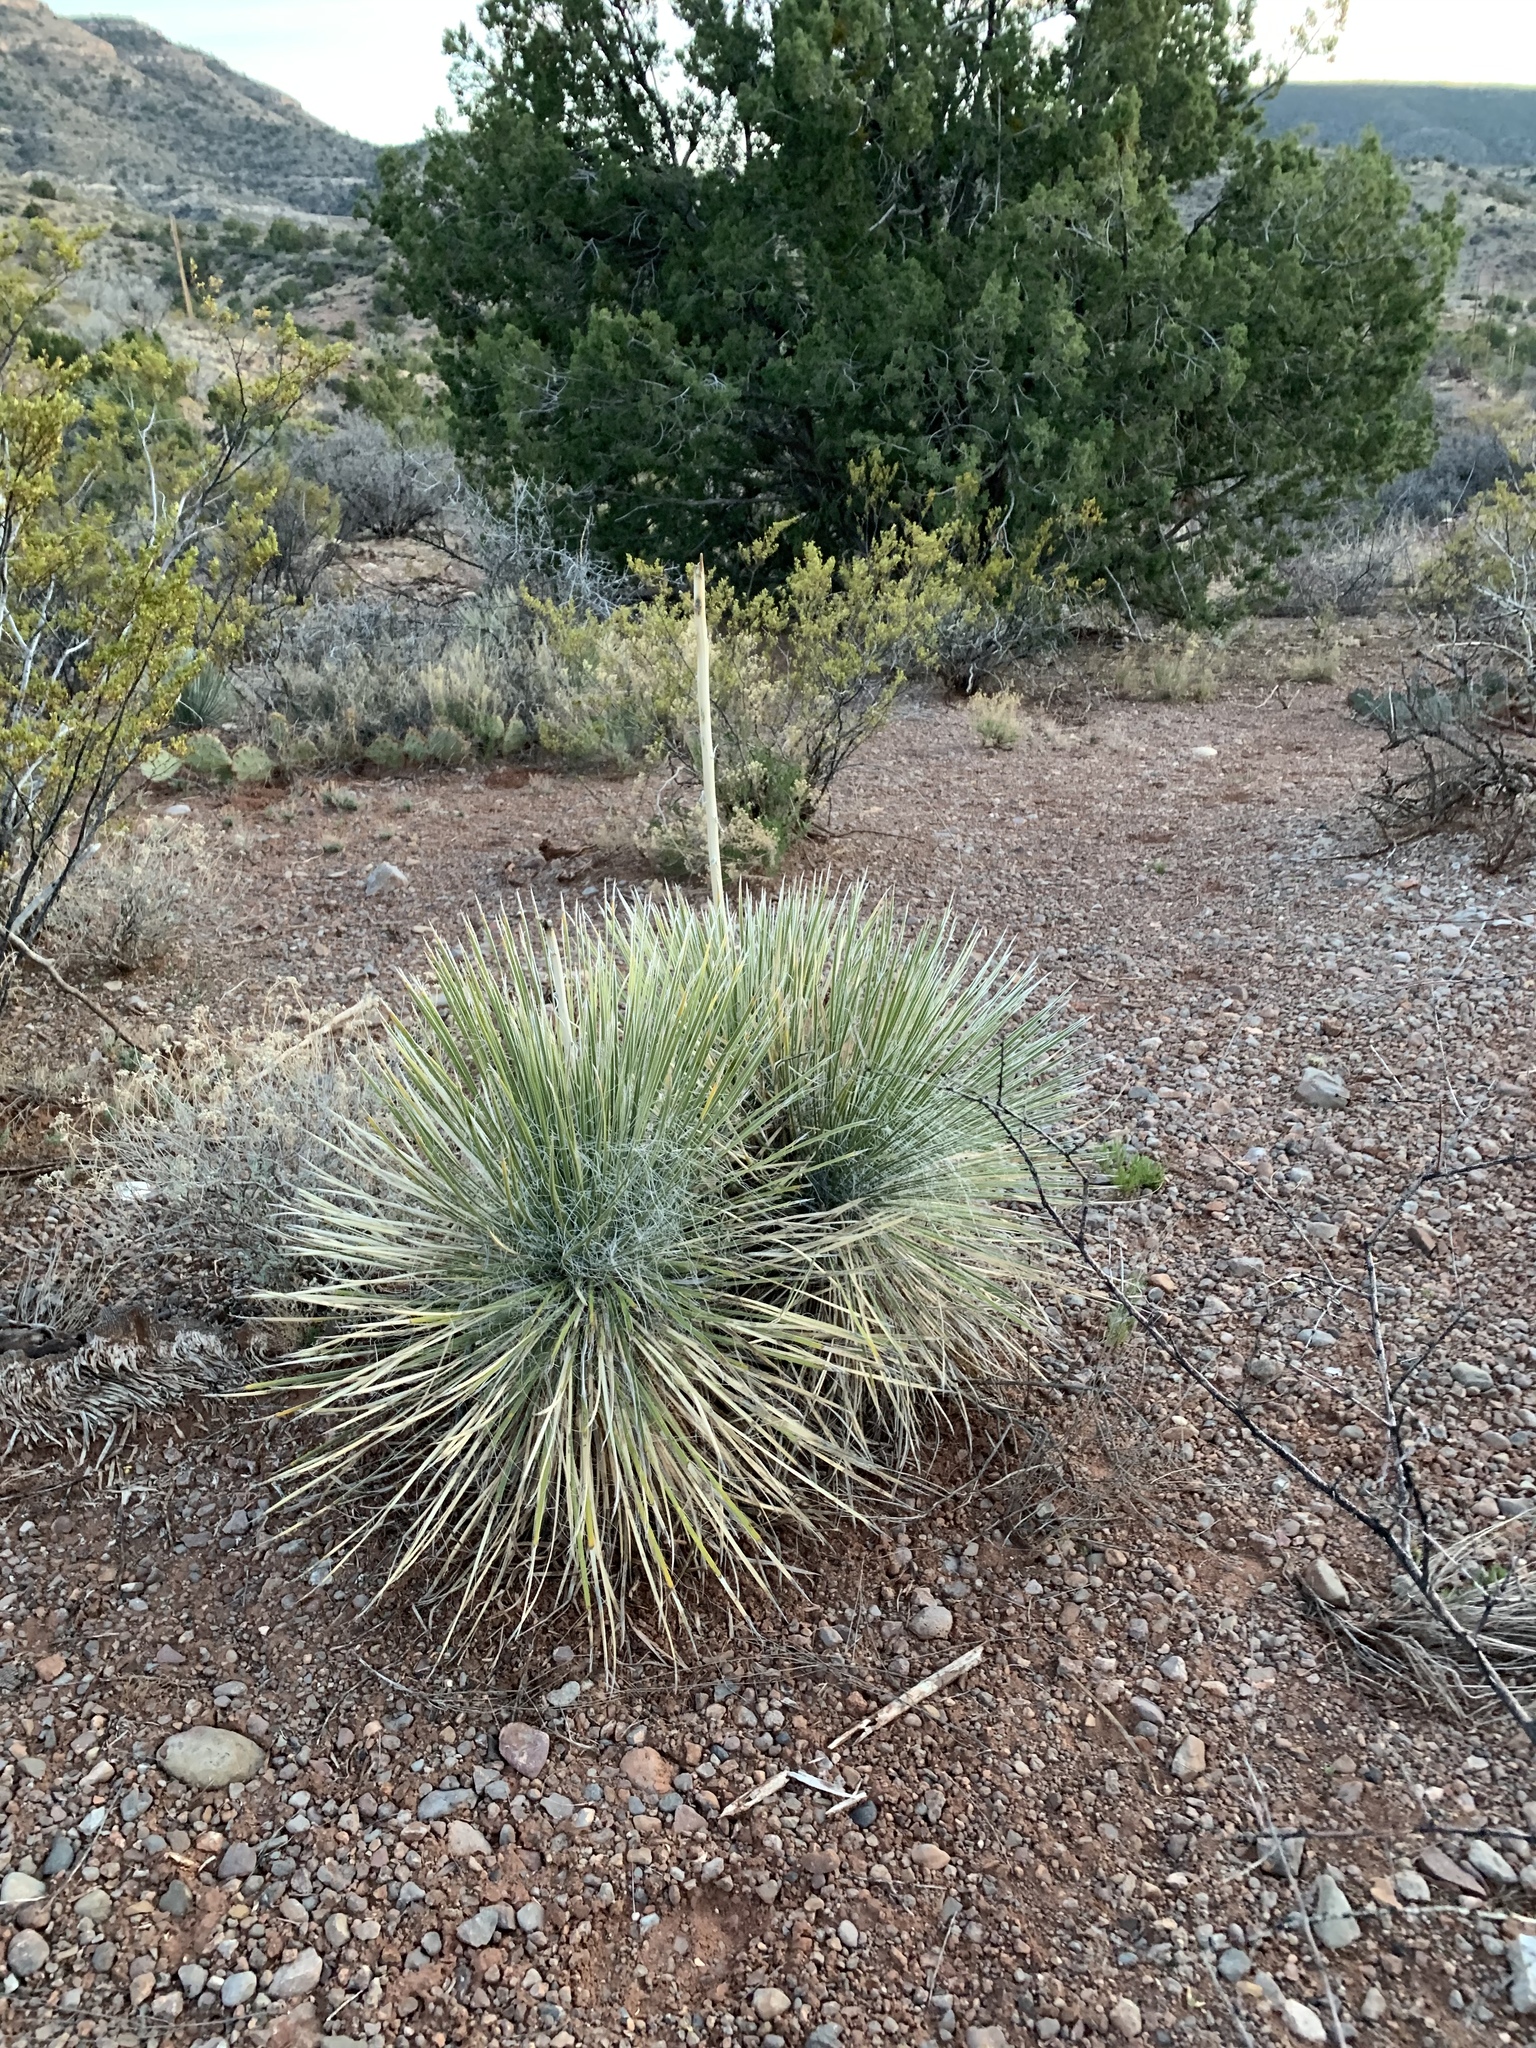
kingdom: Plantae
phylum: Tracheophyta
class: Liliopsida
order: Asparagales
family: Asparagaceae
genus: Yucca
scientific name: Yucca elata
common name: Palmella
